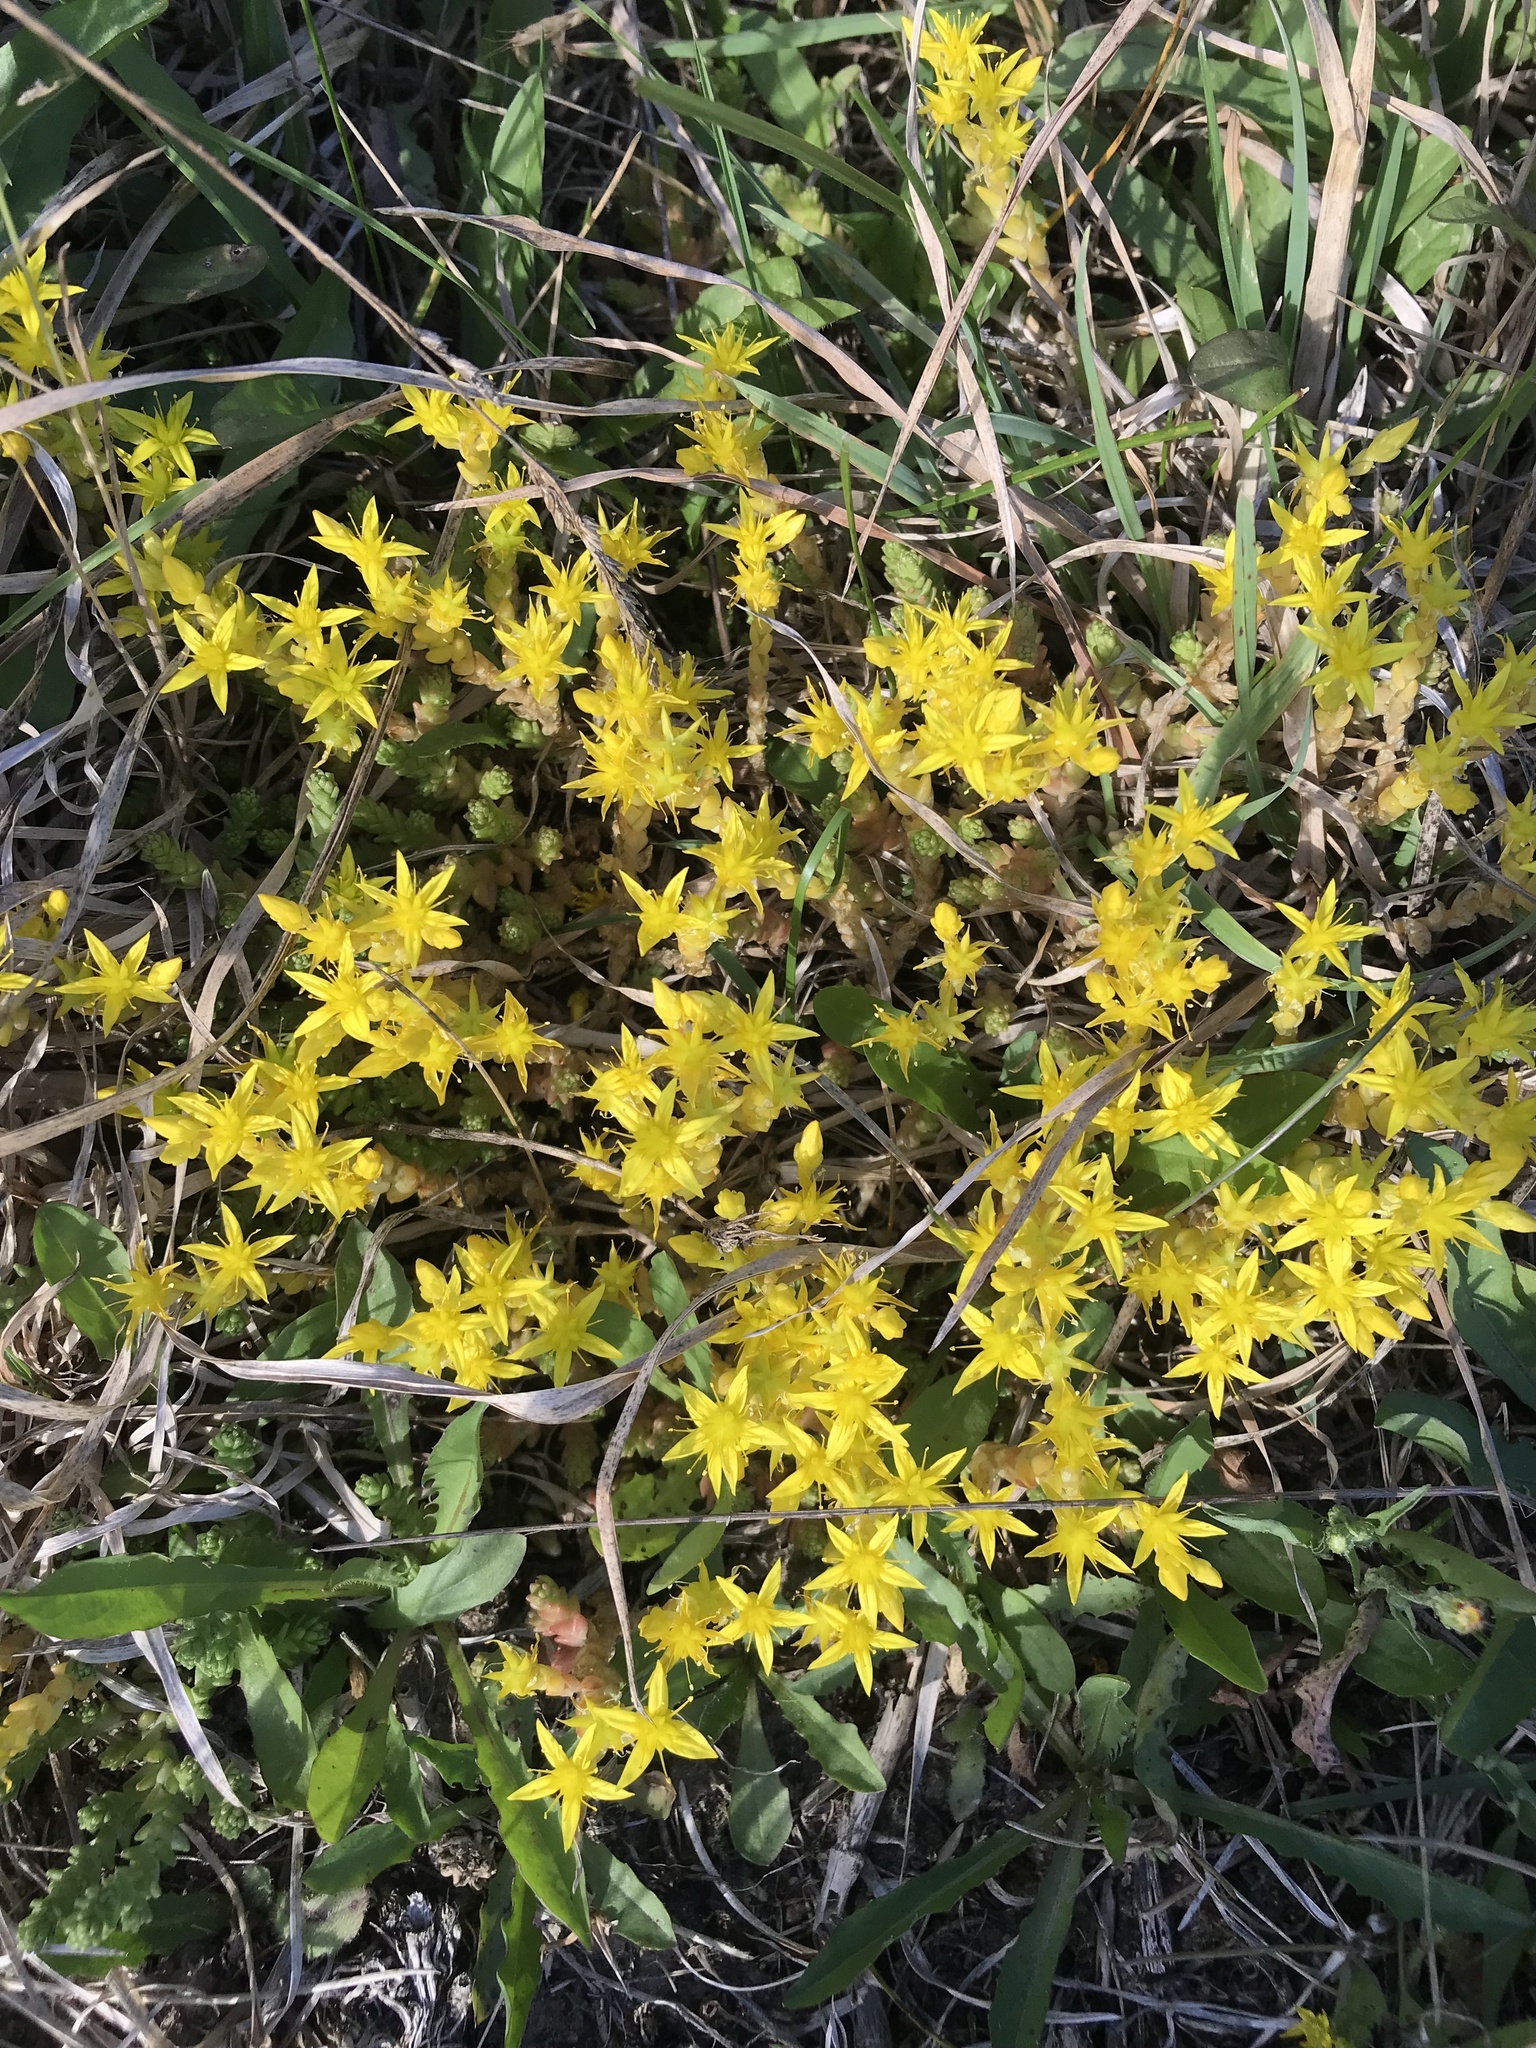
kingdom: Plantae
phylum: Tracheophyta
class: Magnoliopsida
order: Saxifragales
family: Crassulaceae
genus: Sedum
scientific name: Sedum acre
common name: Biting stonecrop
